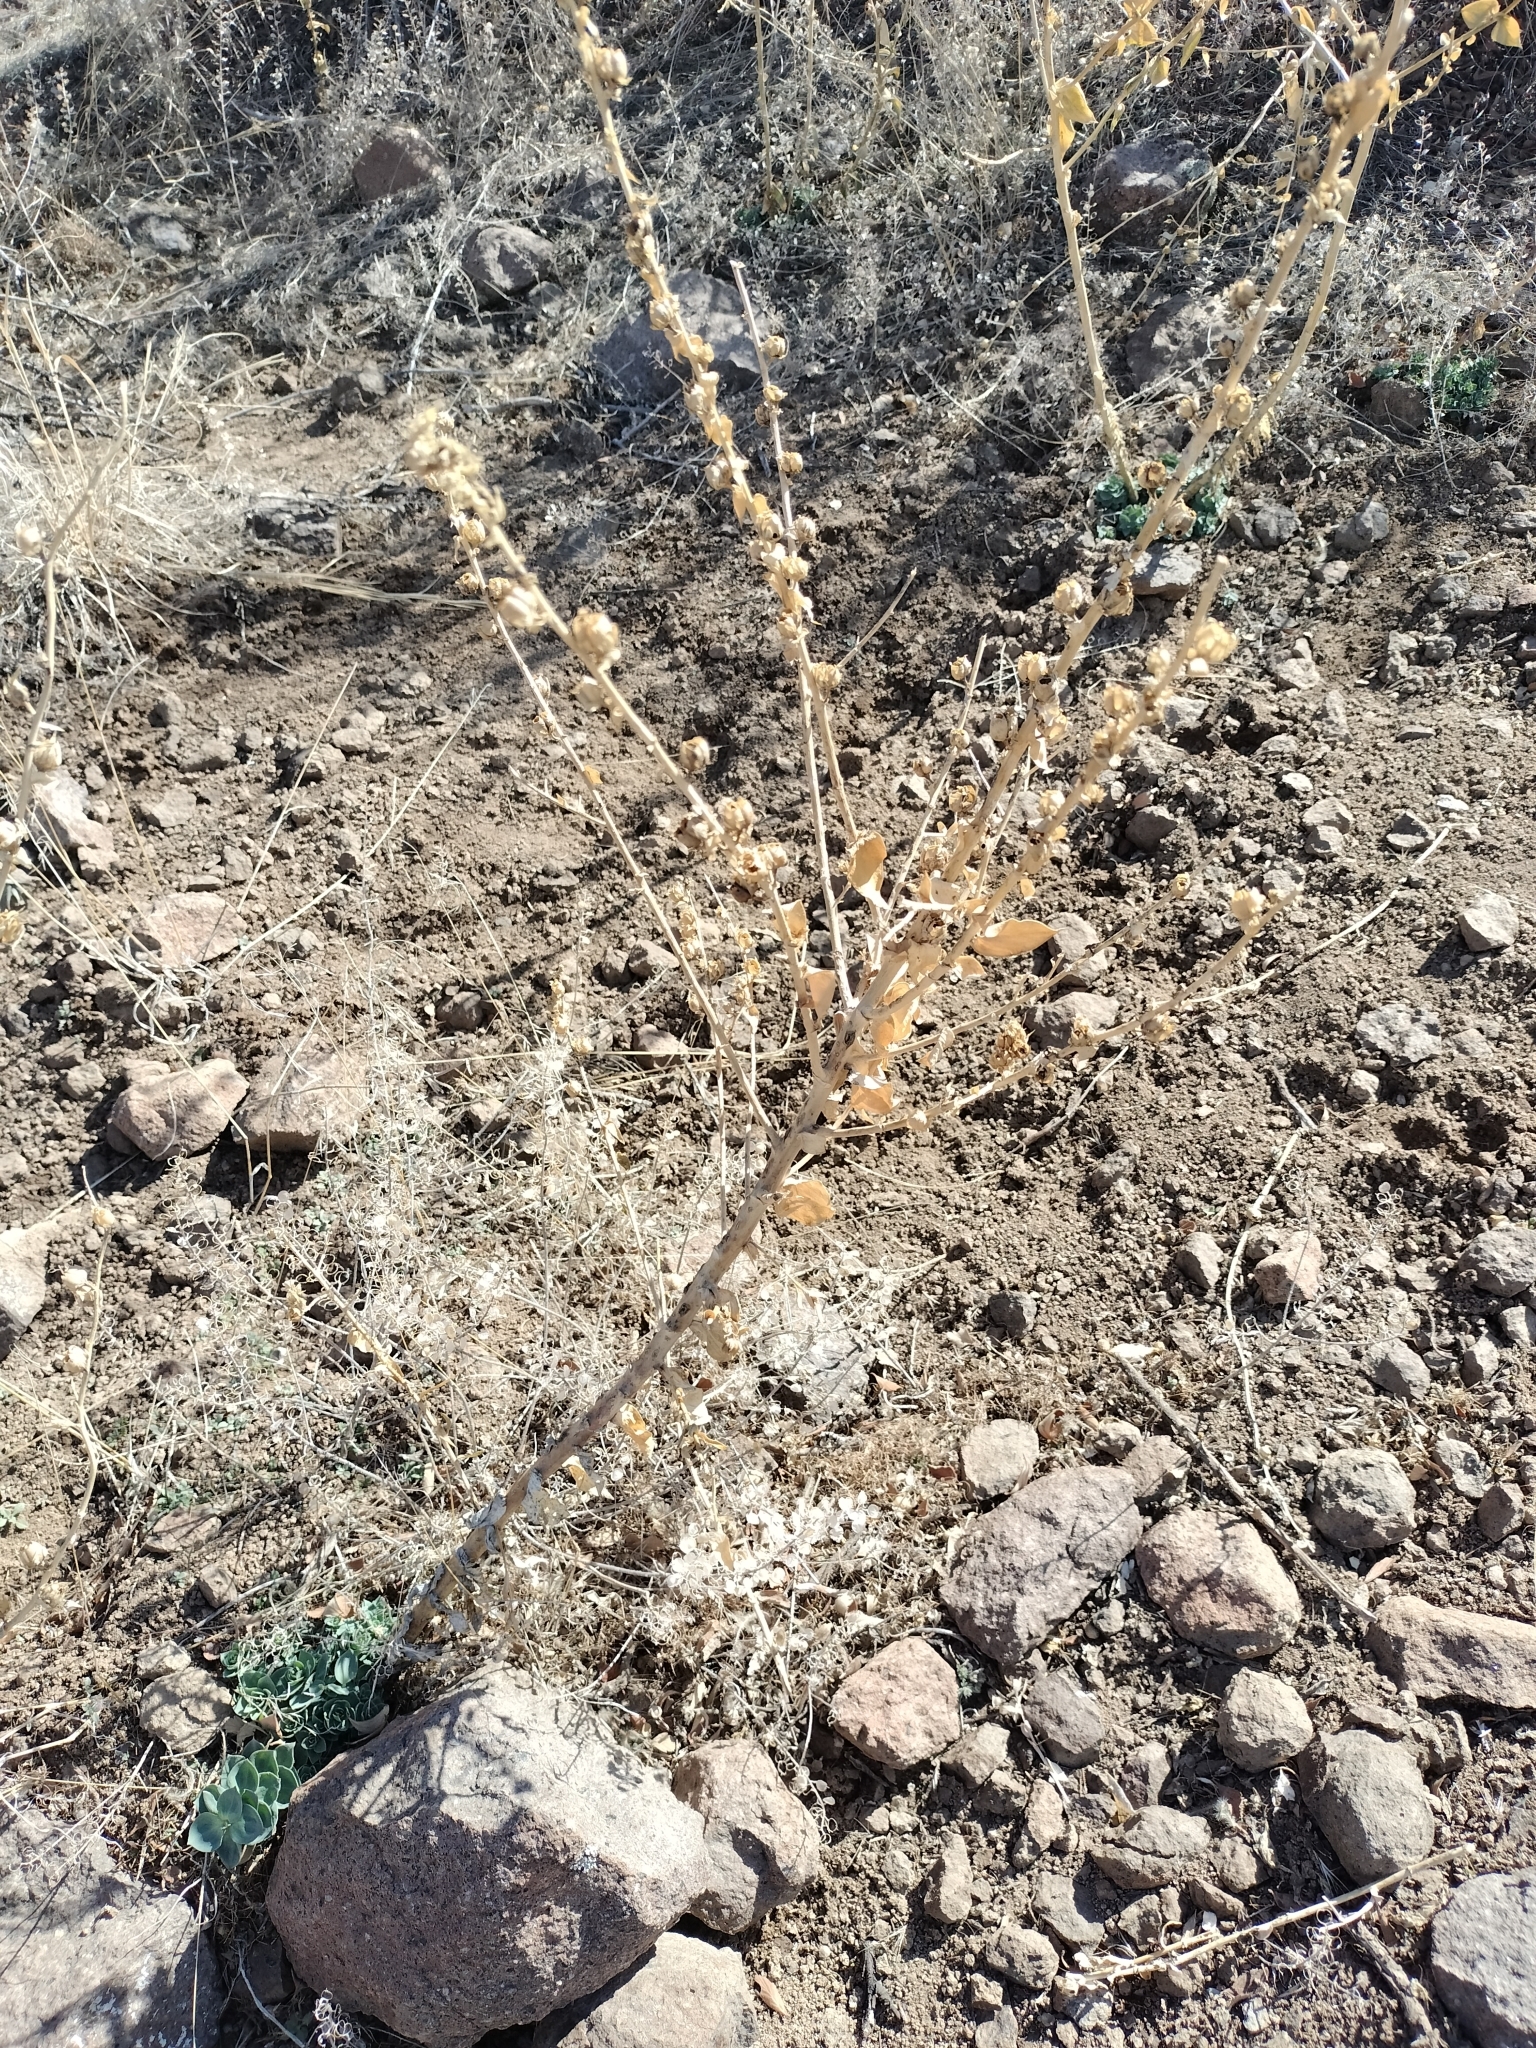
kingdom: Plantae
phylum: Tracheophyta
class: Magnoliopsida
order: Lamiales
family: Plantaginaceae
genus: Linaria
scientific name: Linaria dalmatica
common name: Dalmatian toadflax
